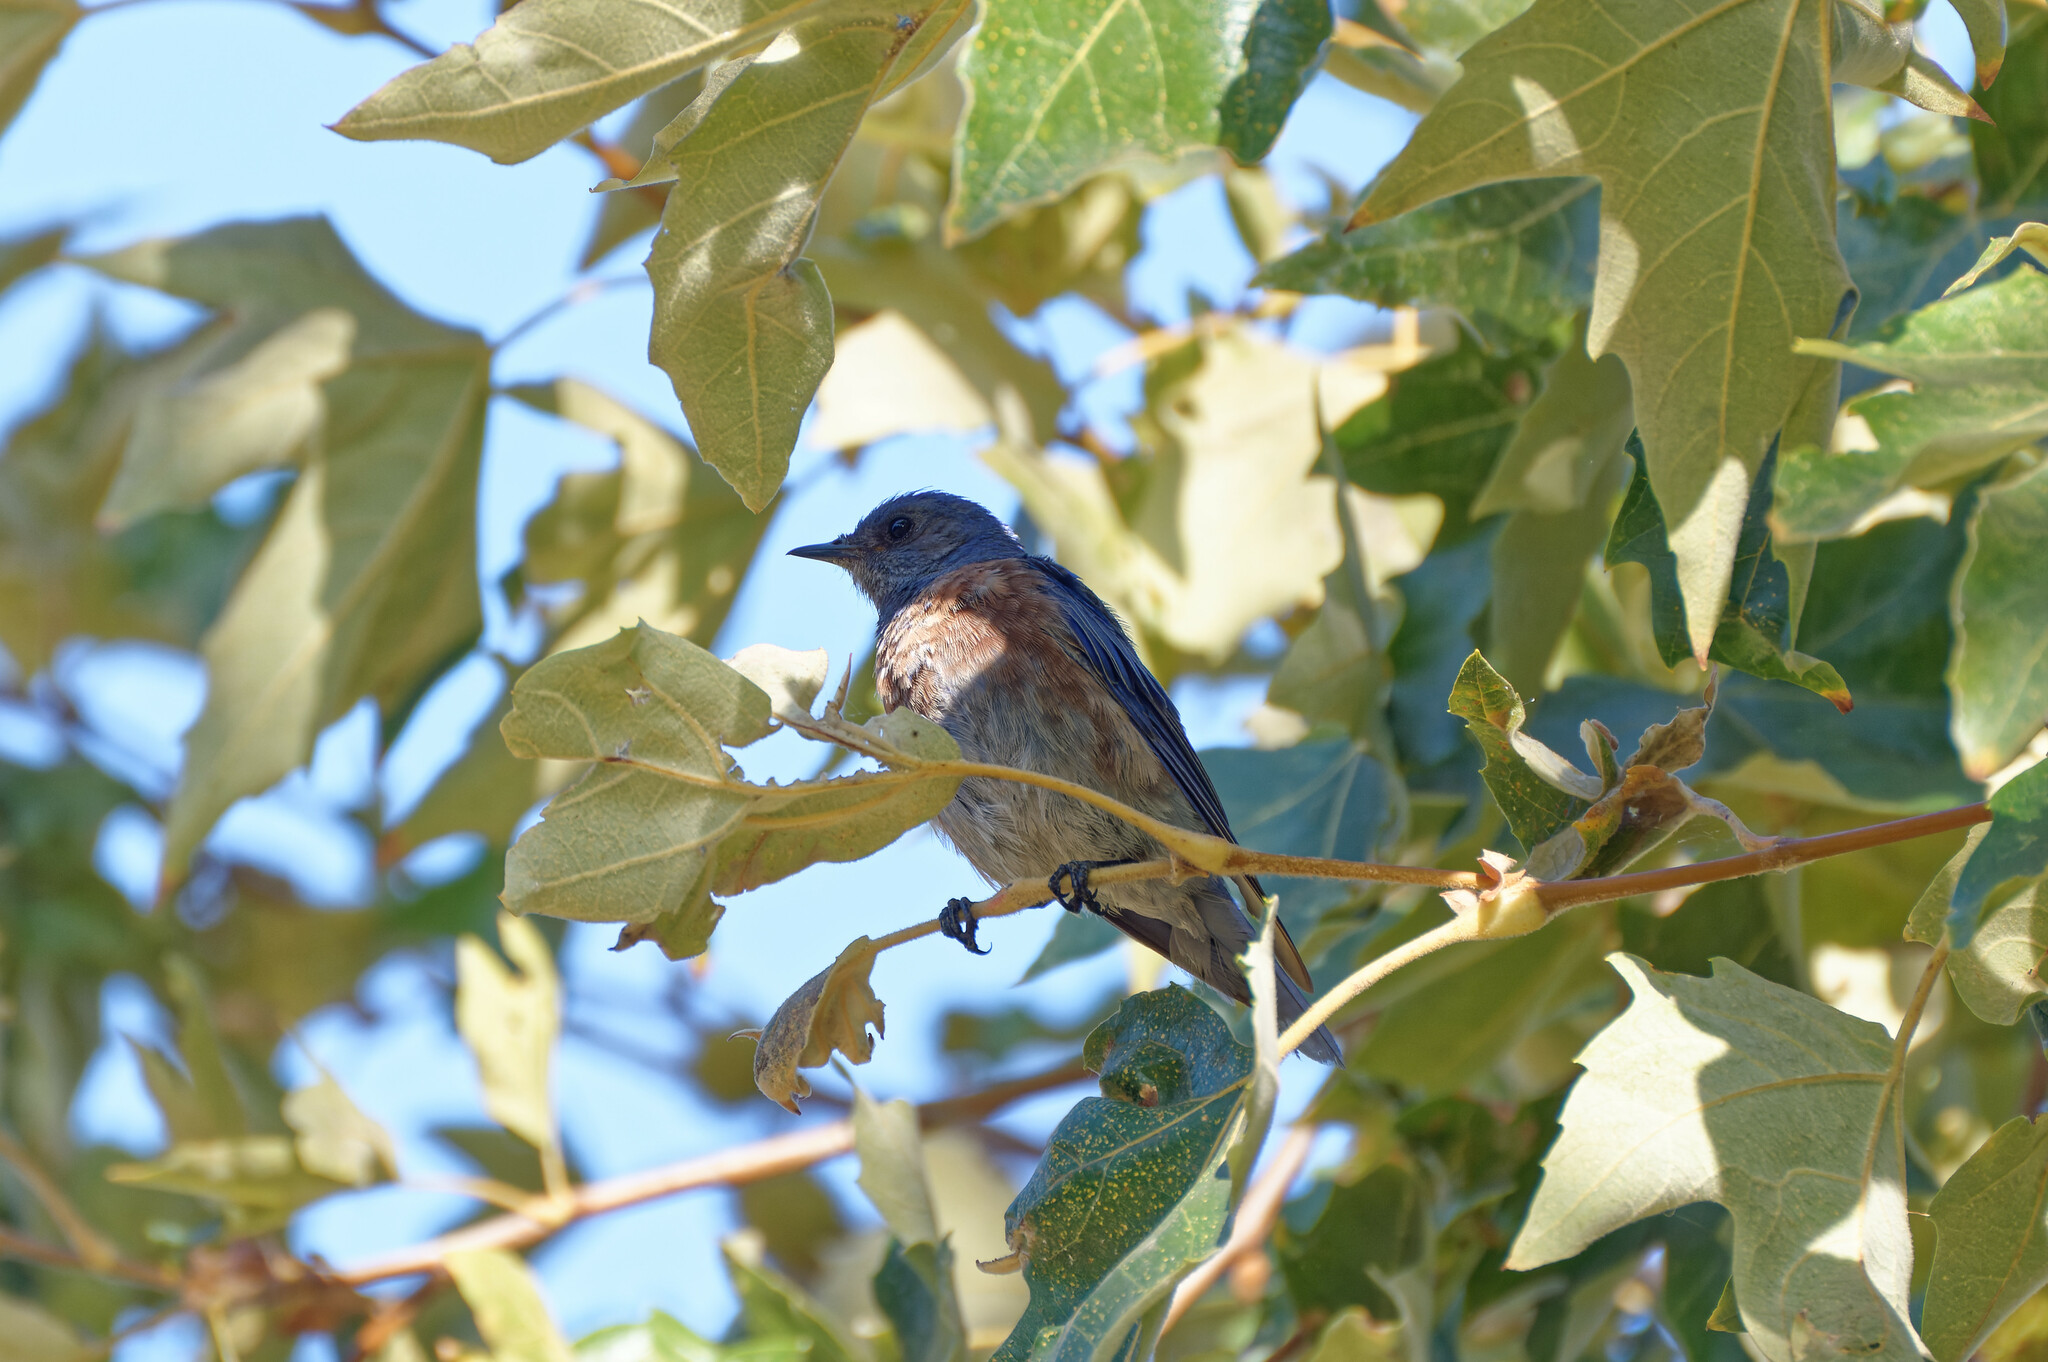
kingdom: Animalia
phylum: Chordata
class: Aves
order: Passeriformes
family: Turdidae
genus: Sialia
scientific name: Sialia mexicana
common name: Western bluebird
